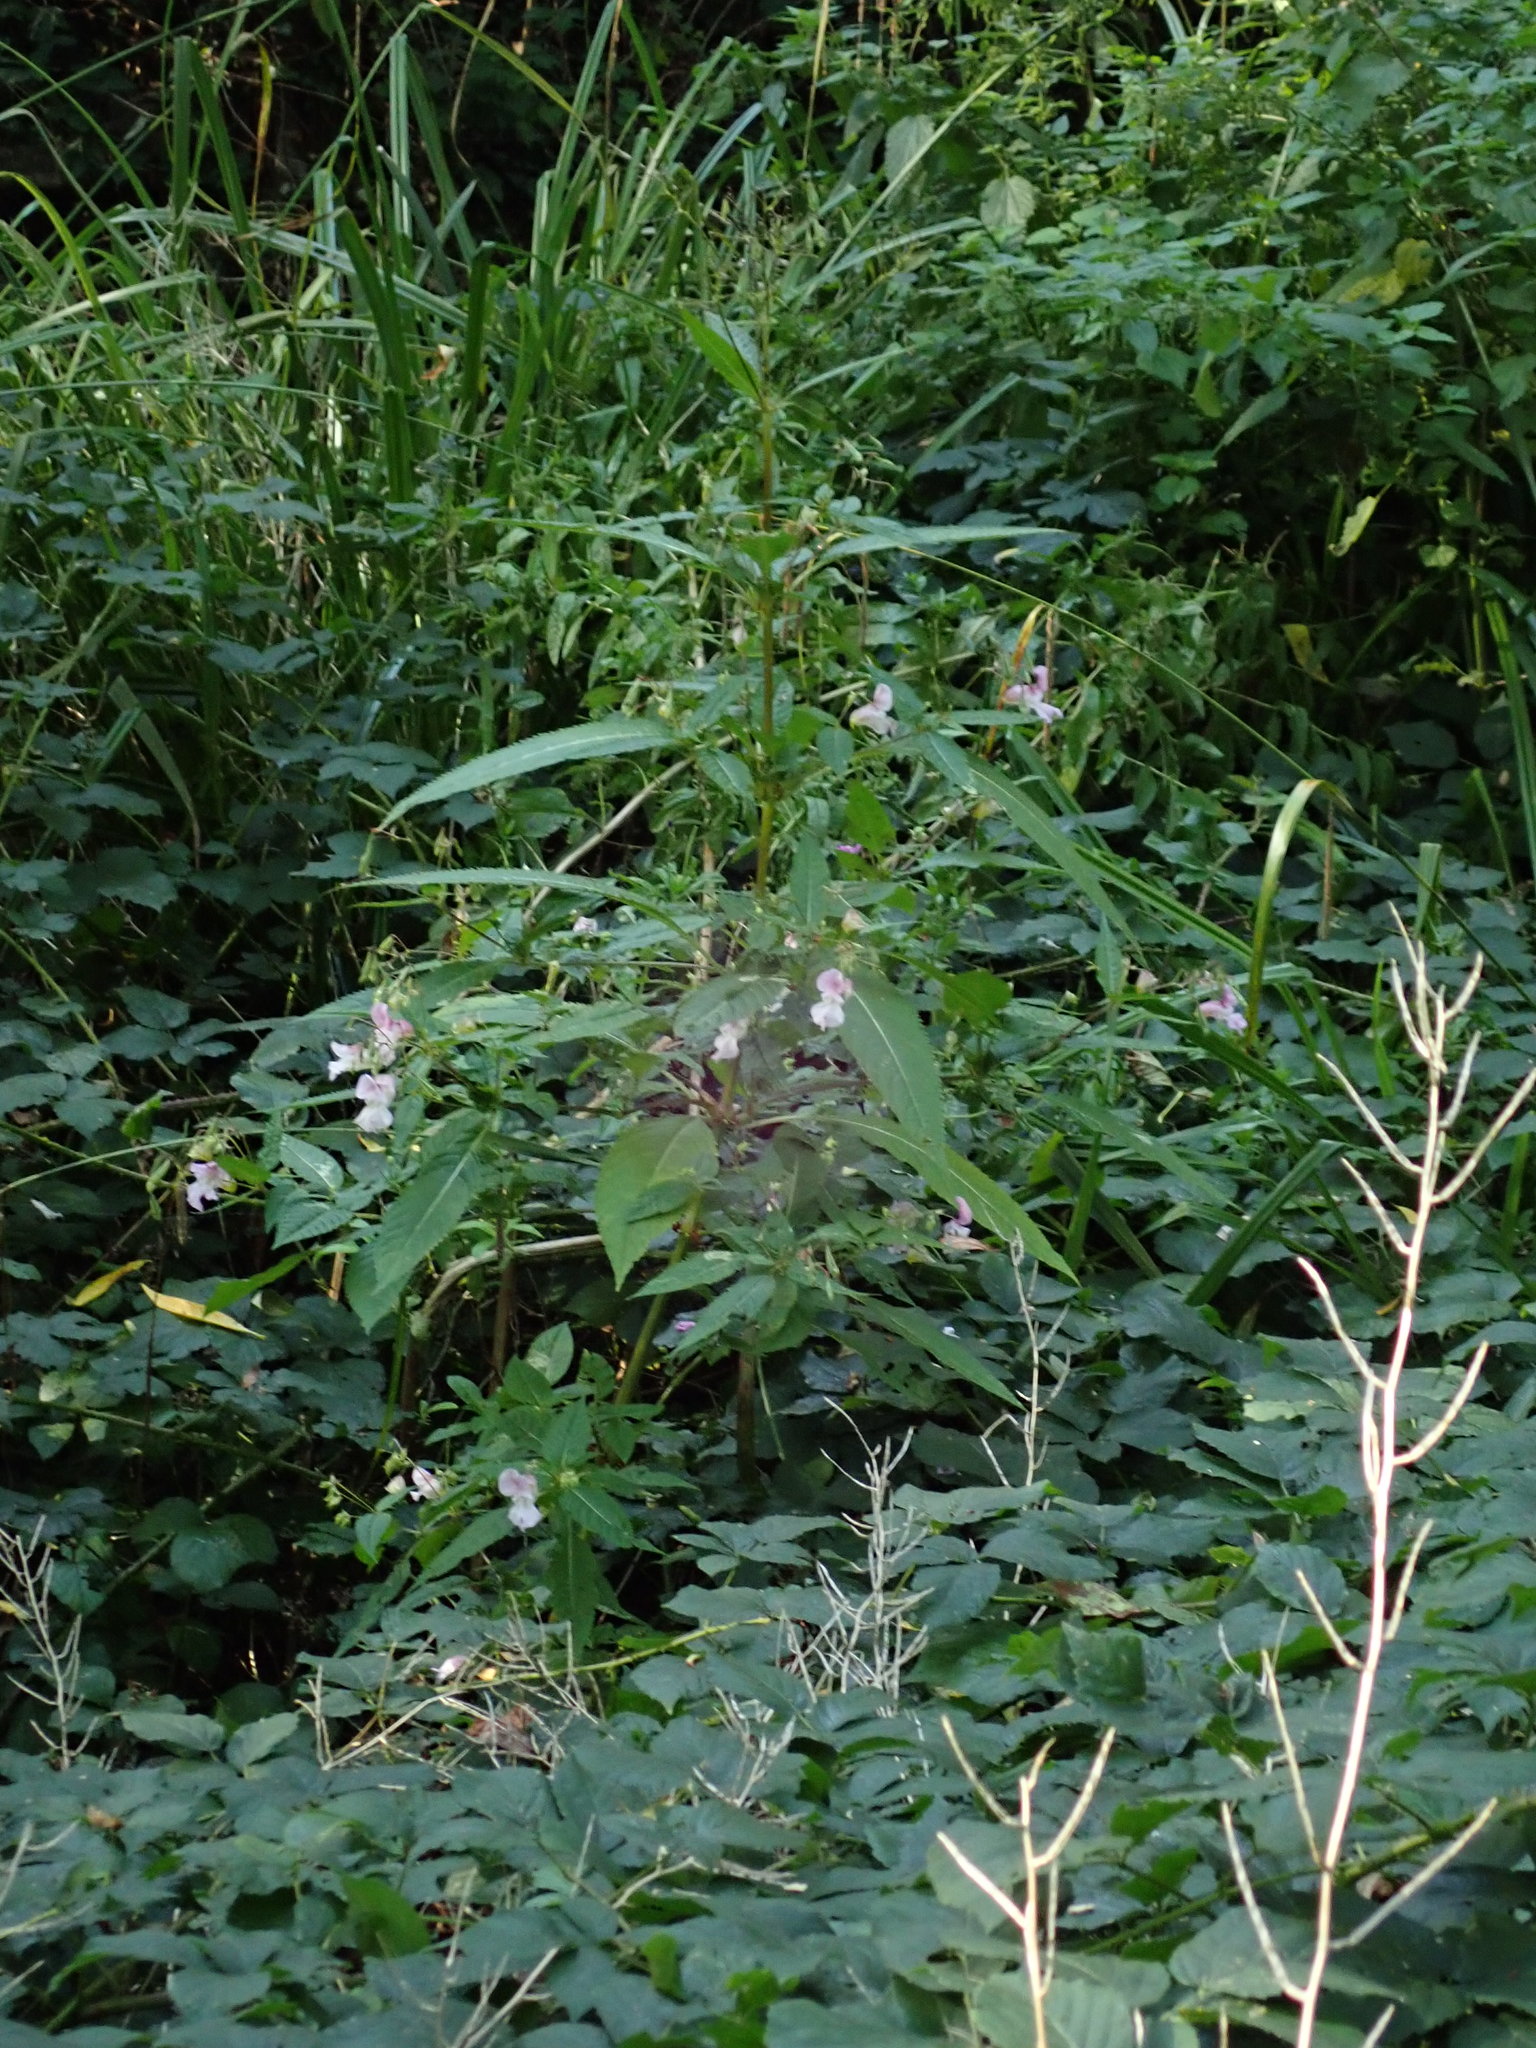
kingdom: Plantae
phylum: Tracheophyta
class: Magnoliopsida
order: Ericales
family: Balsaminaceae
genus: Impatiens
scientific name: Impatiens glandulifera
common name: Himalayan balsam
